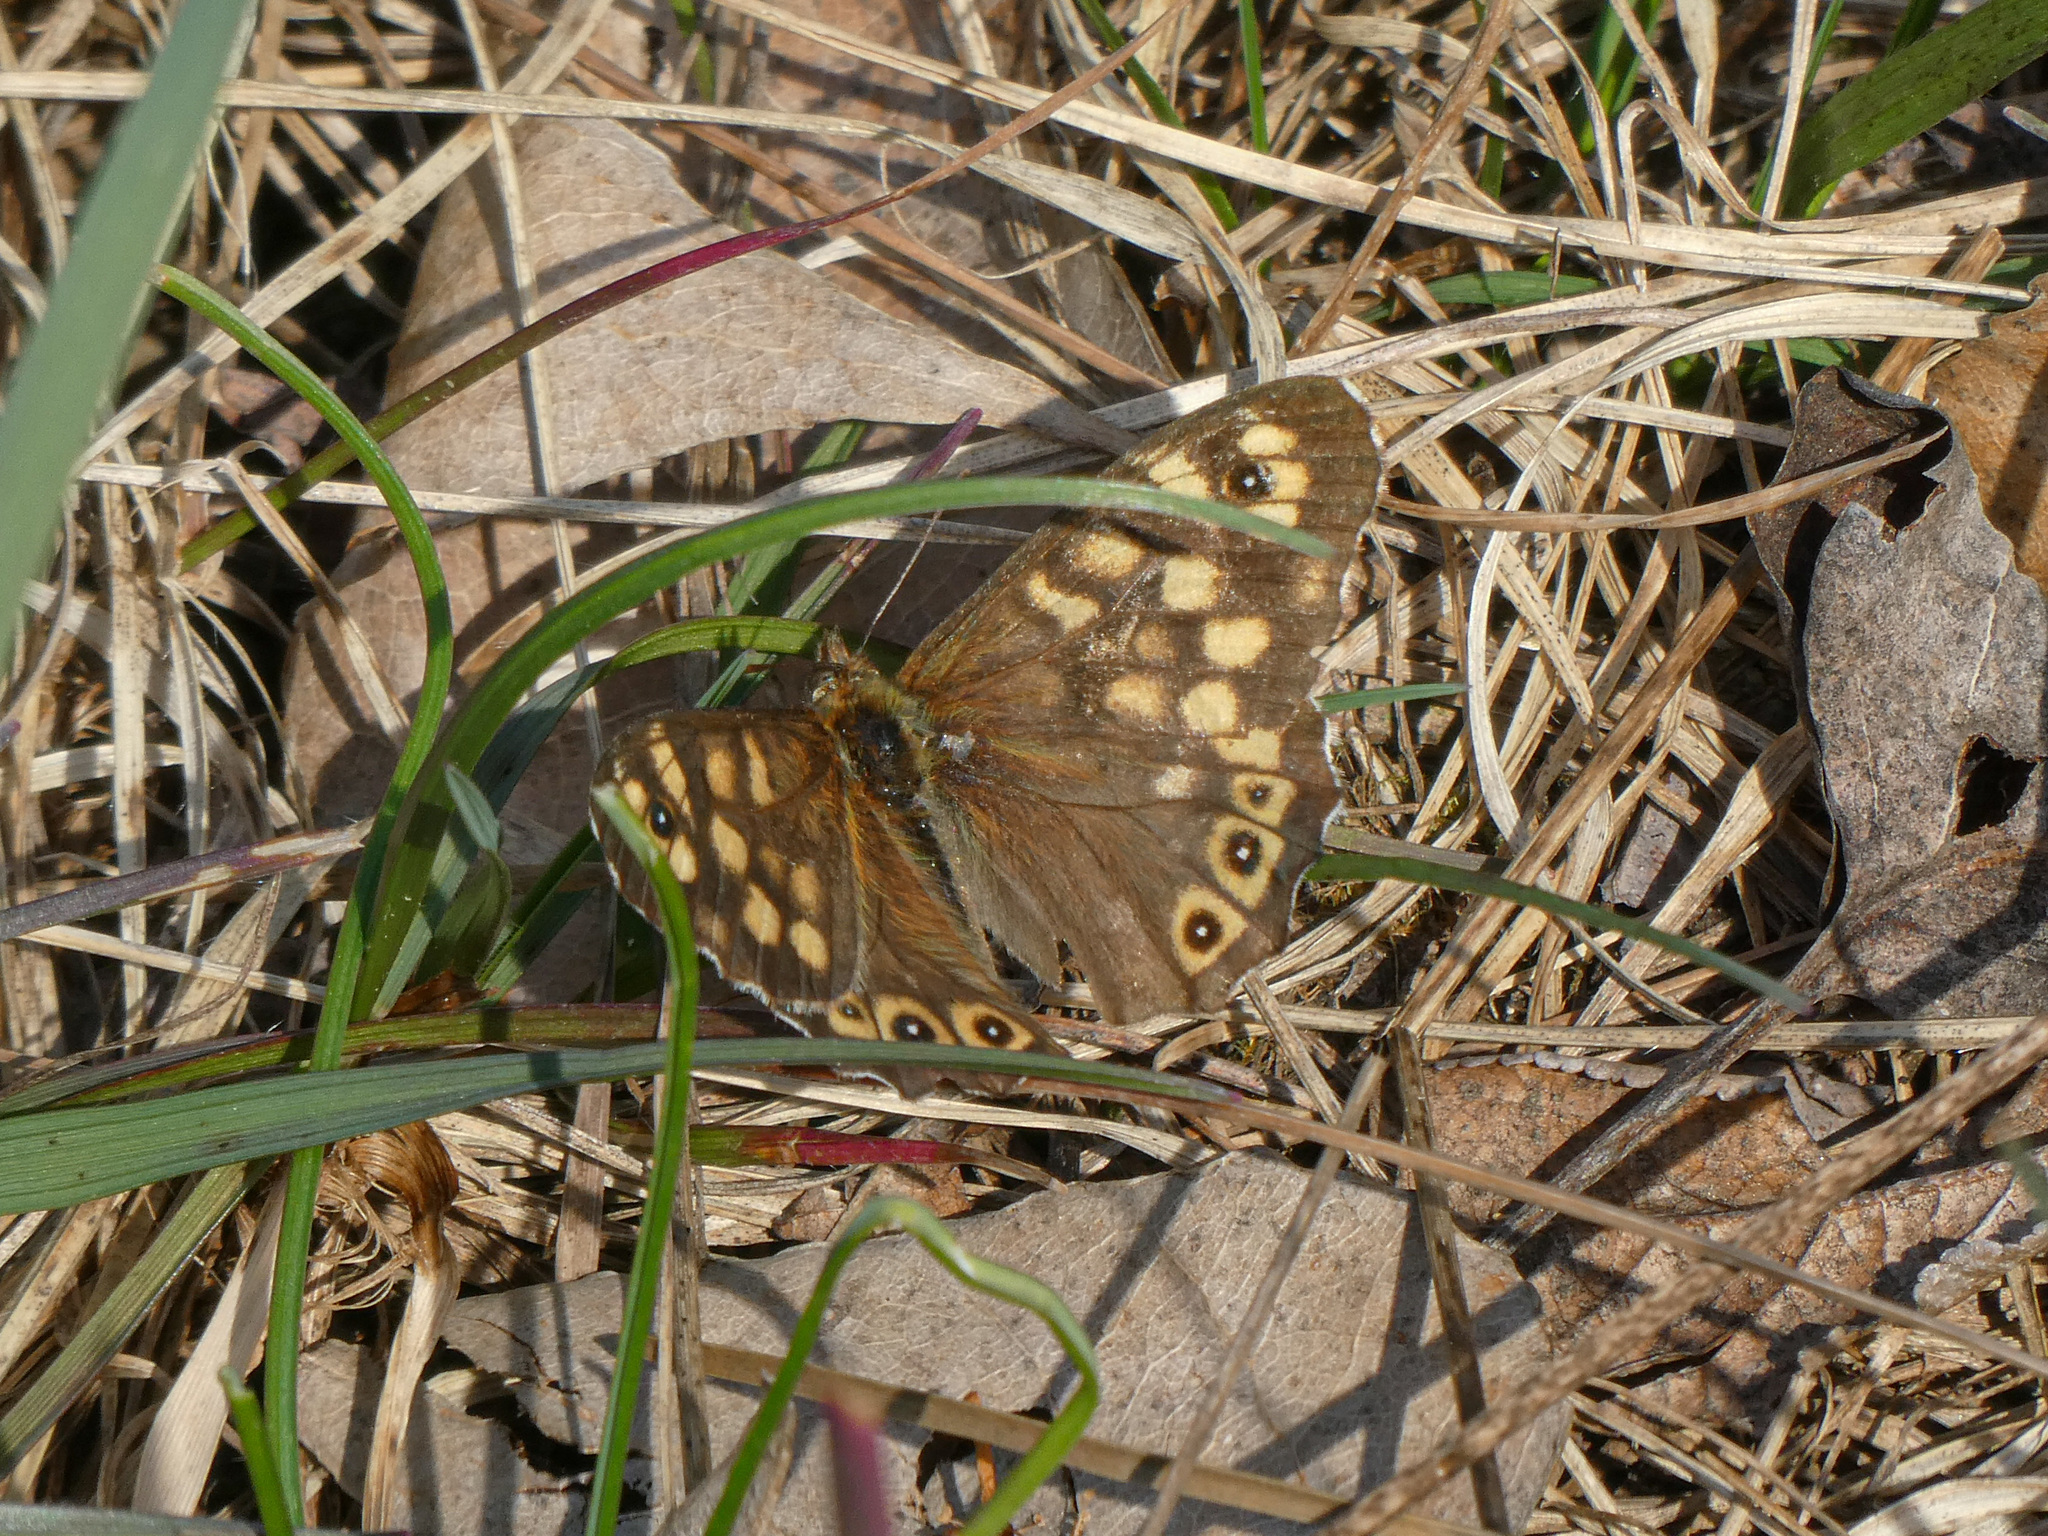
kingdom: Animalia
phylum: Arthropoda
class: Insecta
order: Lepidoptera
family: Nymphalidae
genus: Pararge
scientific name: Pararge aegeria
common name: Speckled wood
